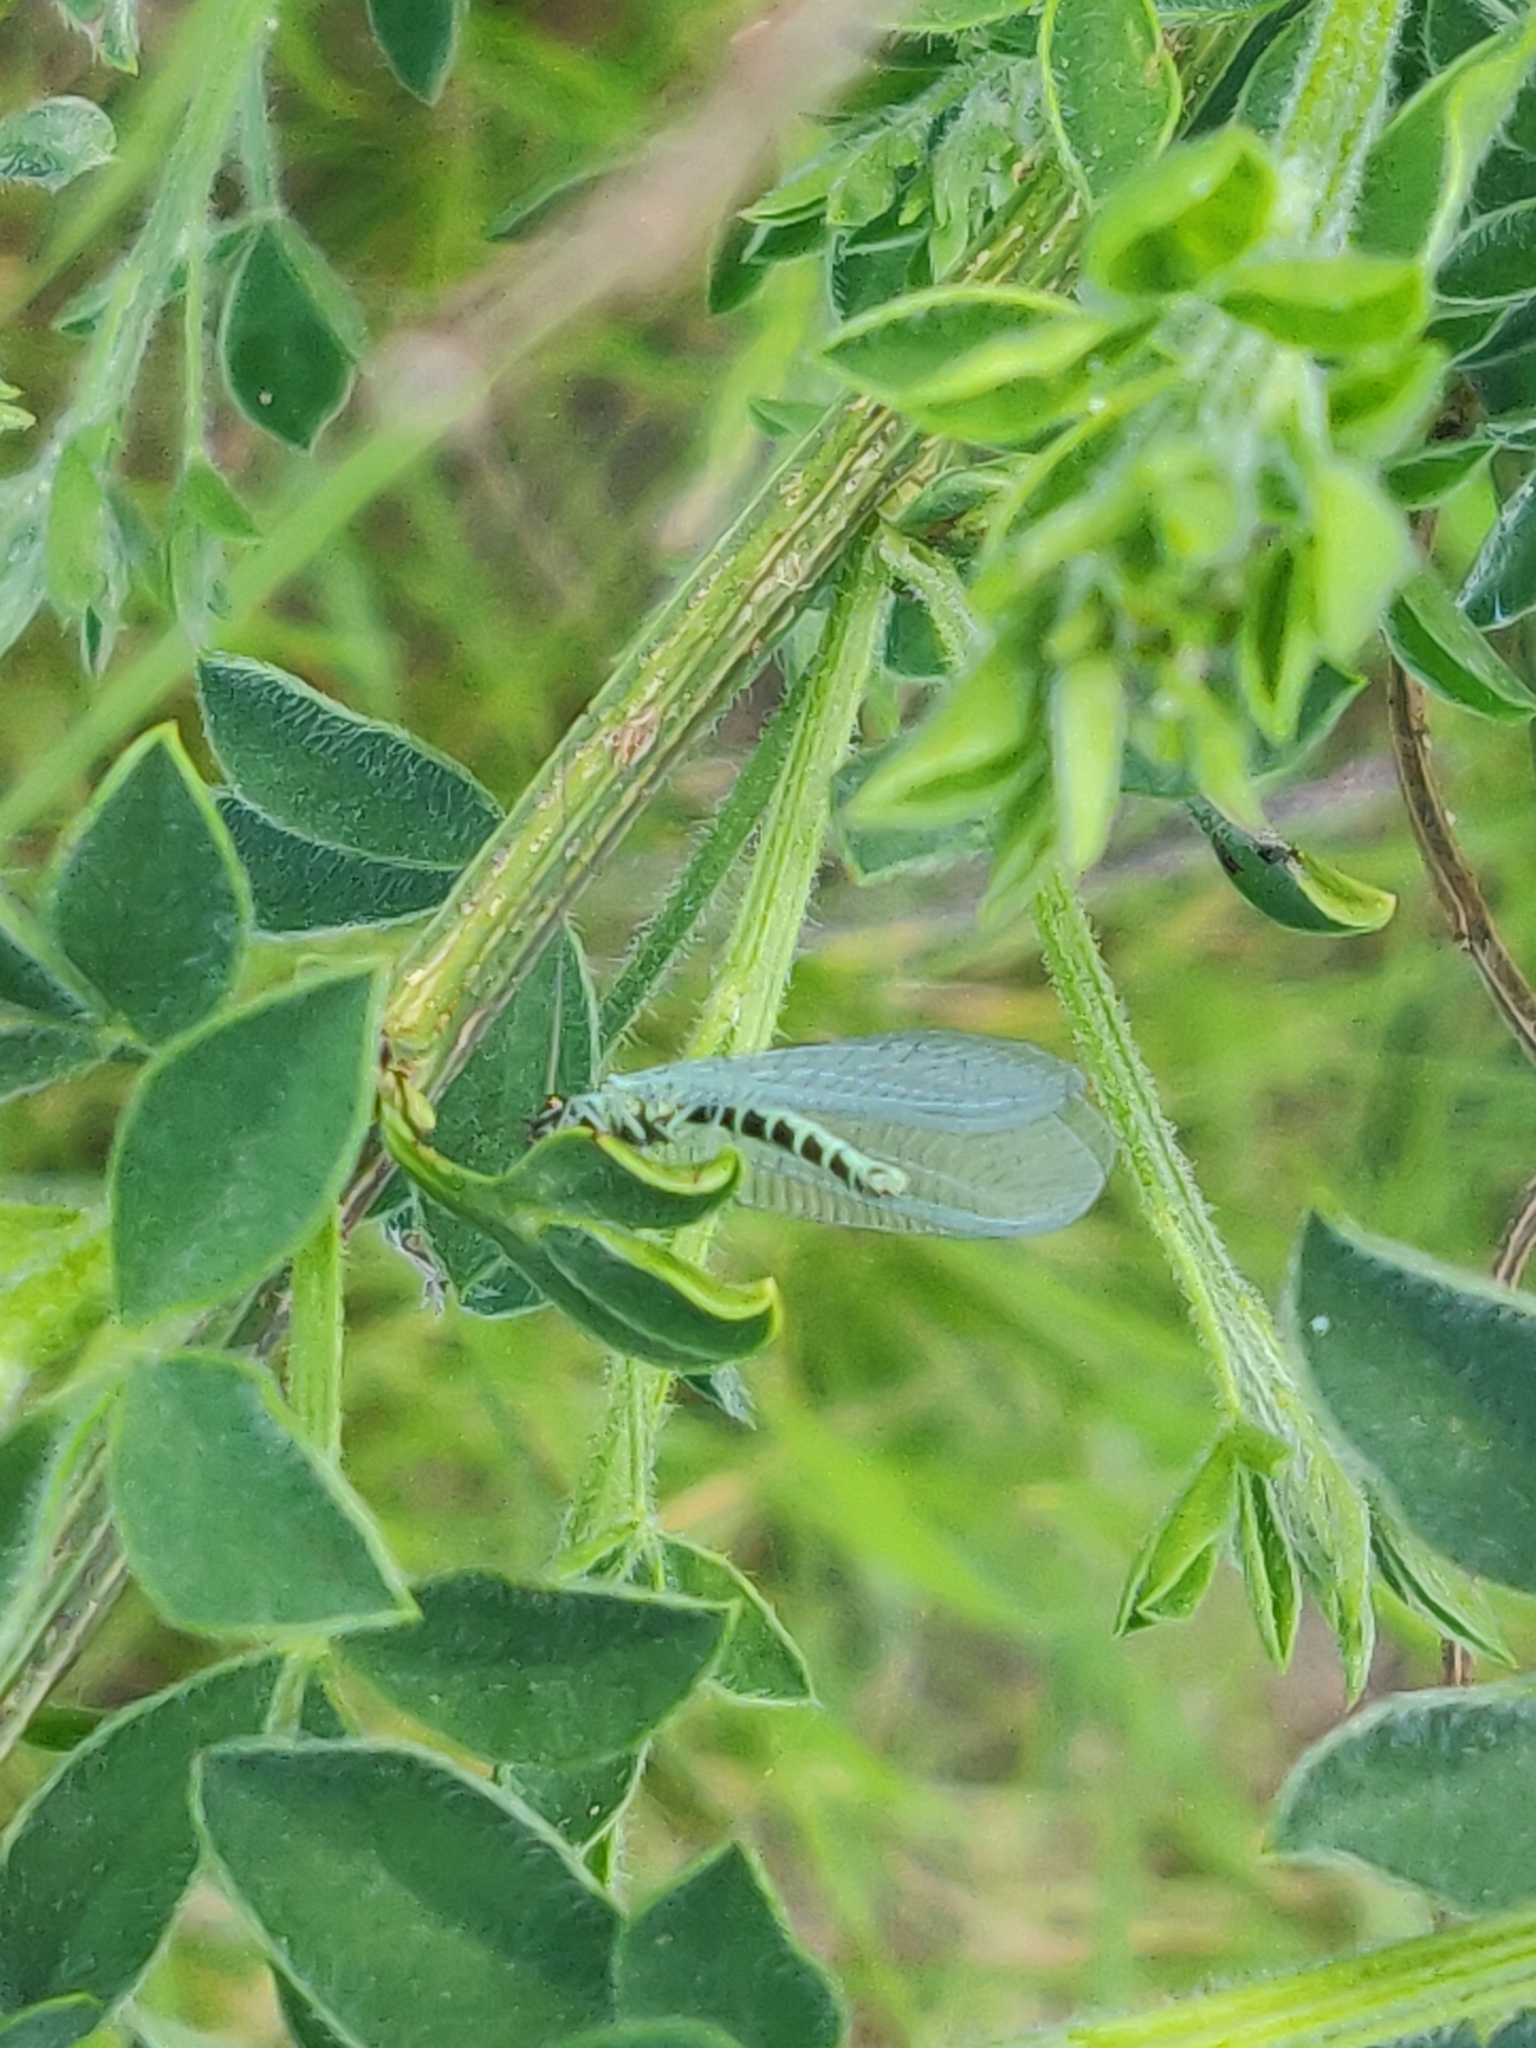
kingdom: Animalia
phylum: Arthropoda
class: Insecta
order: Neuroptera
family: Chrysopidae
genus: Chrysopa
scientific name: Chrysopa perla
